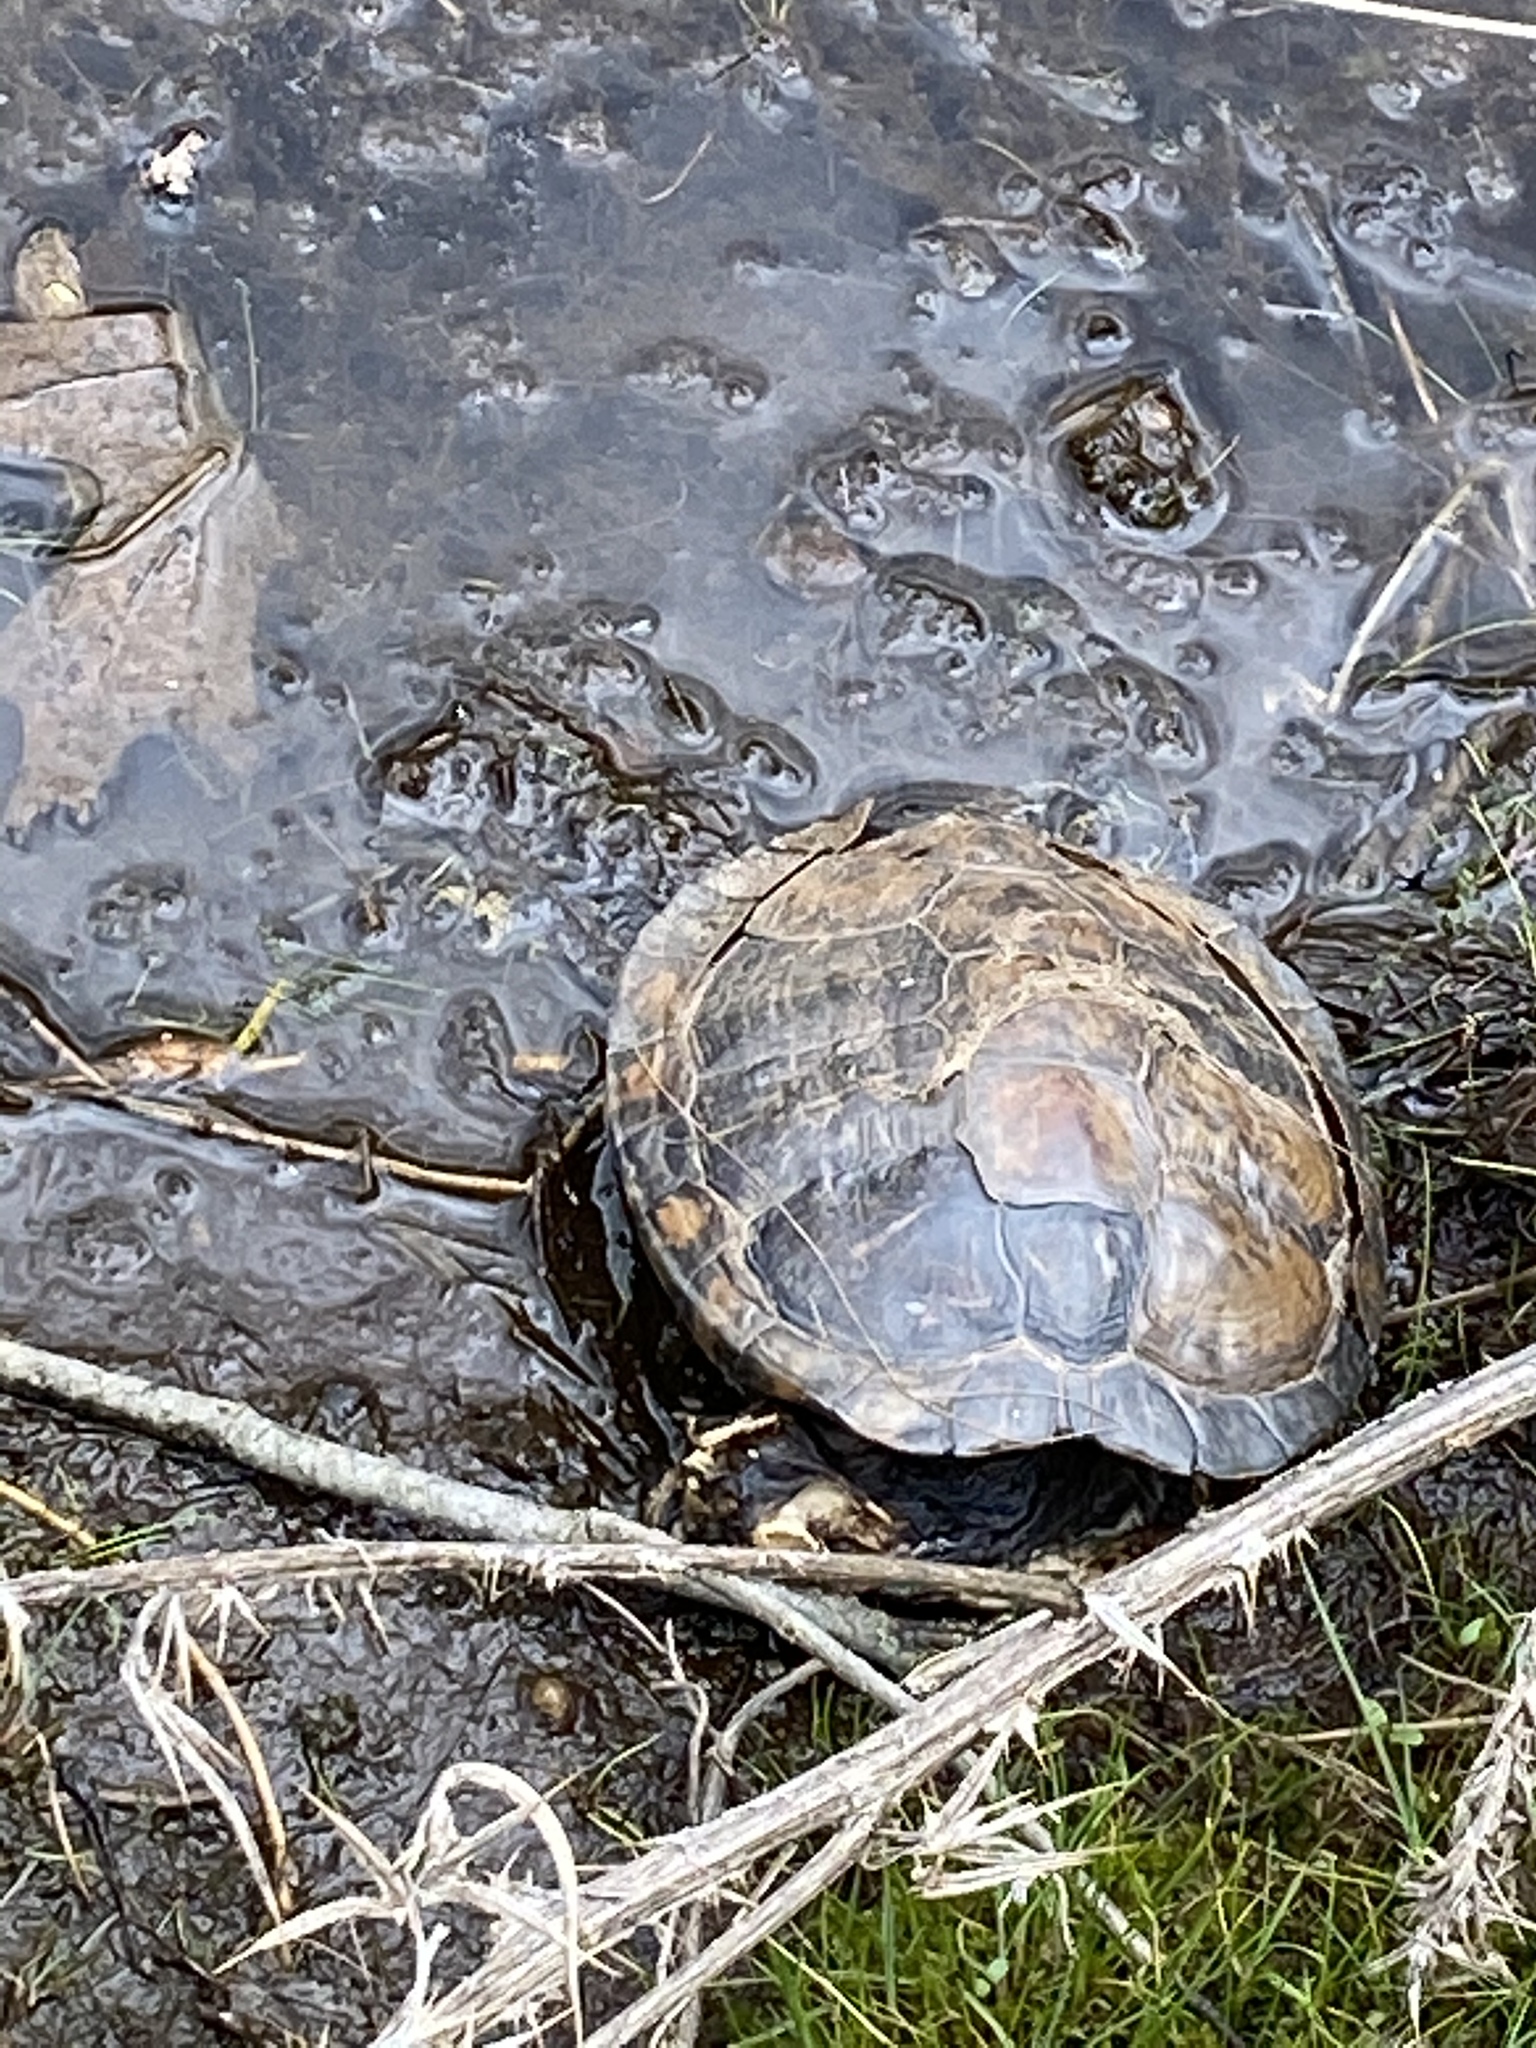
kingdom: Animalia
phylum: Chordata
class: Testudines
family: Emydidae
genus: Trachemys
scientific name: Trachemys scripta
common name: Slider
